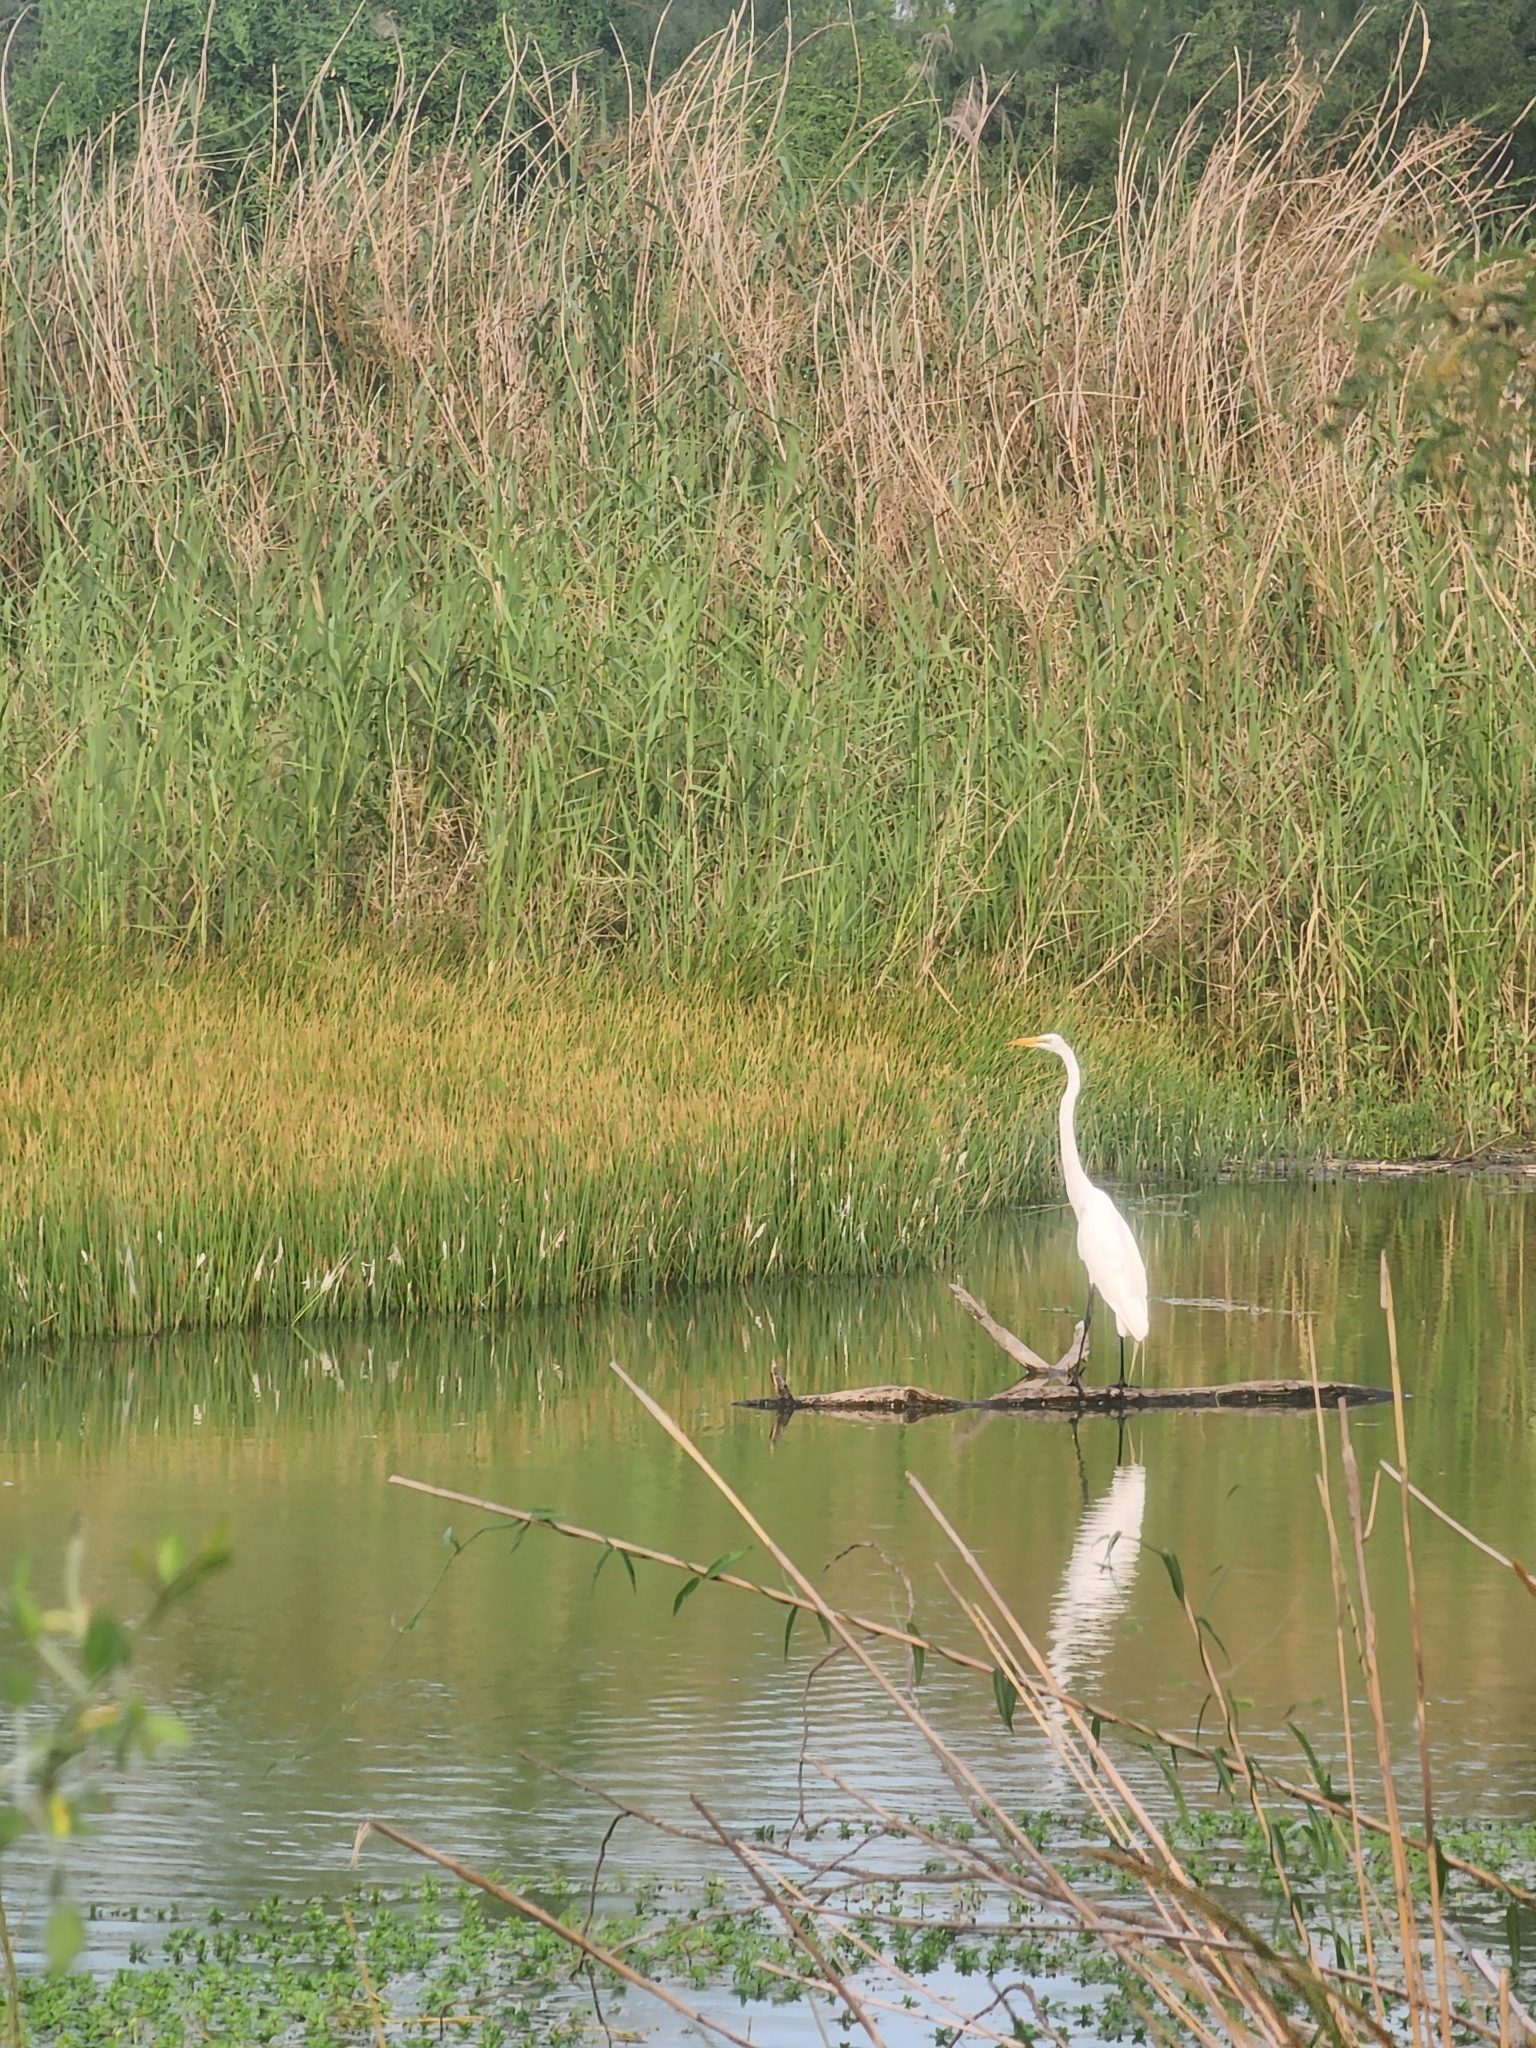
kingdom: Animalia
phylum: Chordata
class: Aves
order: Pelecaniformes
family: Ardeidae
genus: Ardea
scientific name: Ardea alba
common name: Great egret
